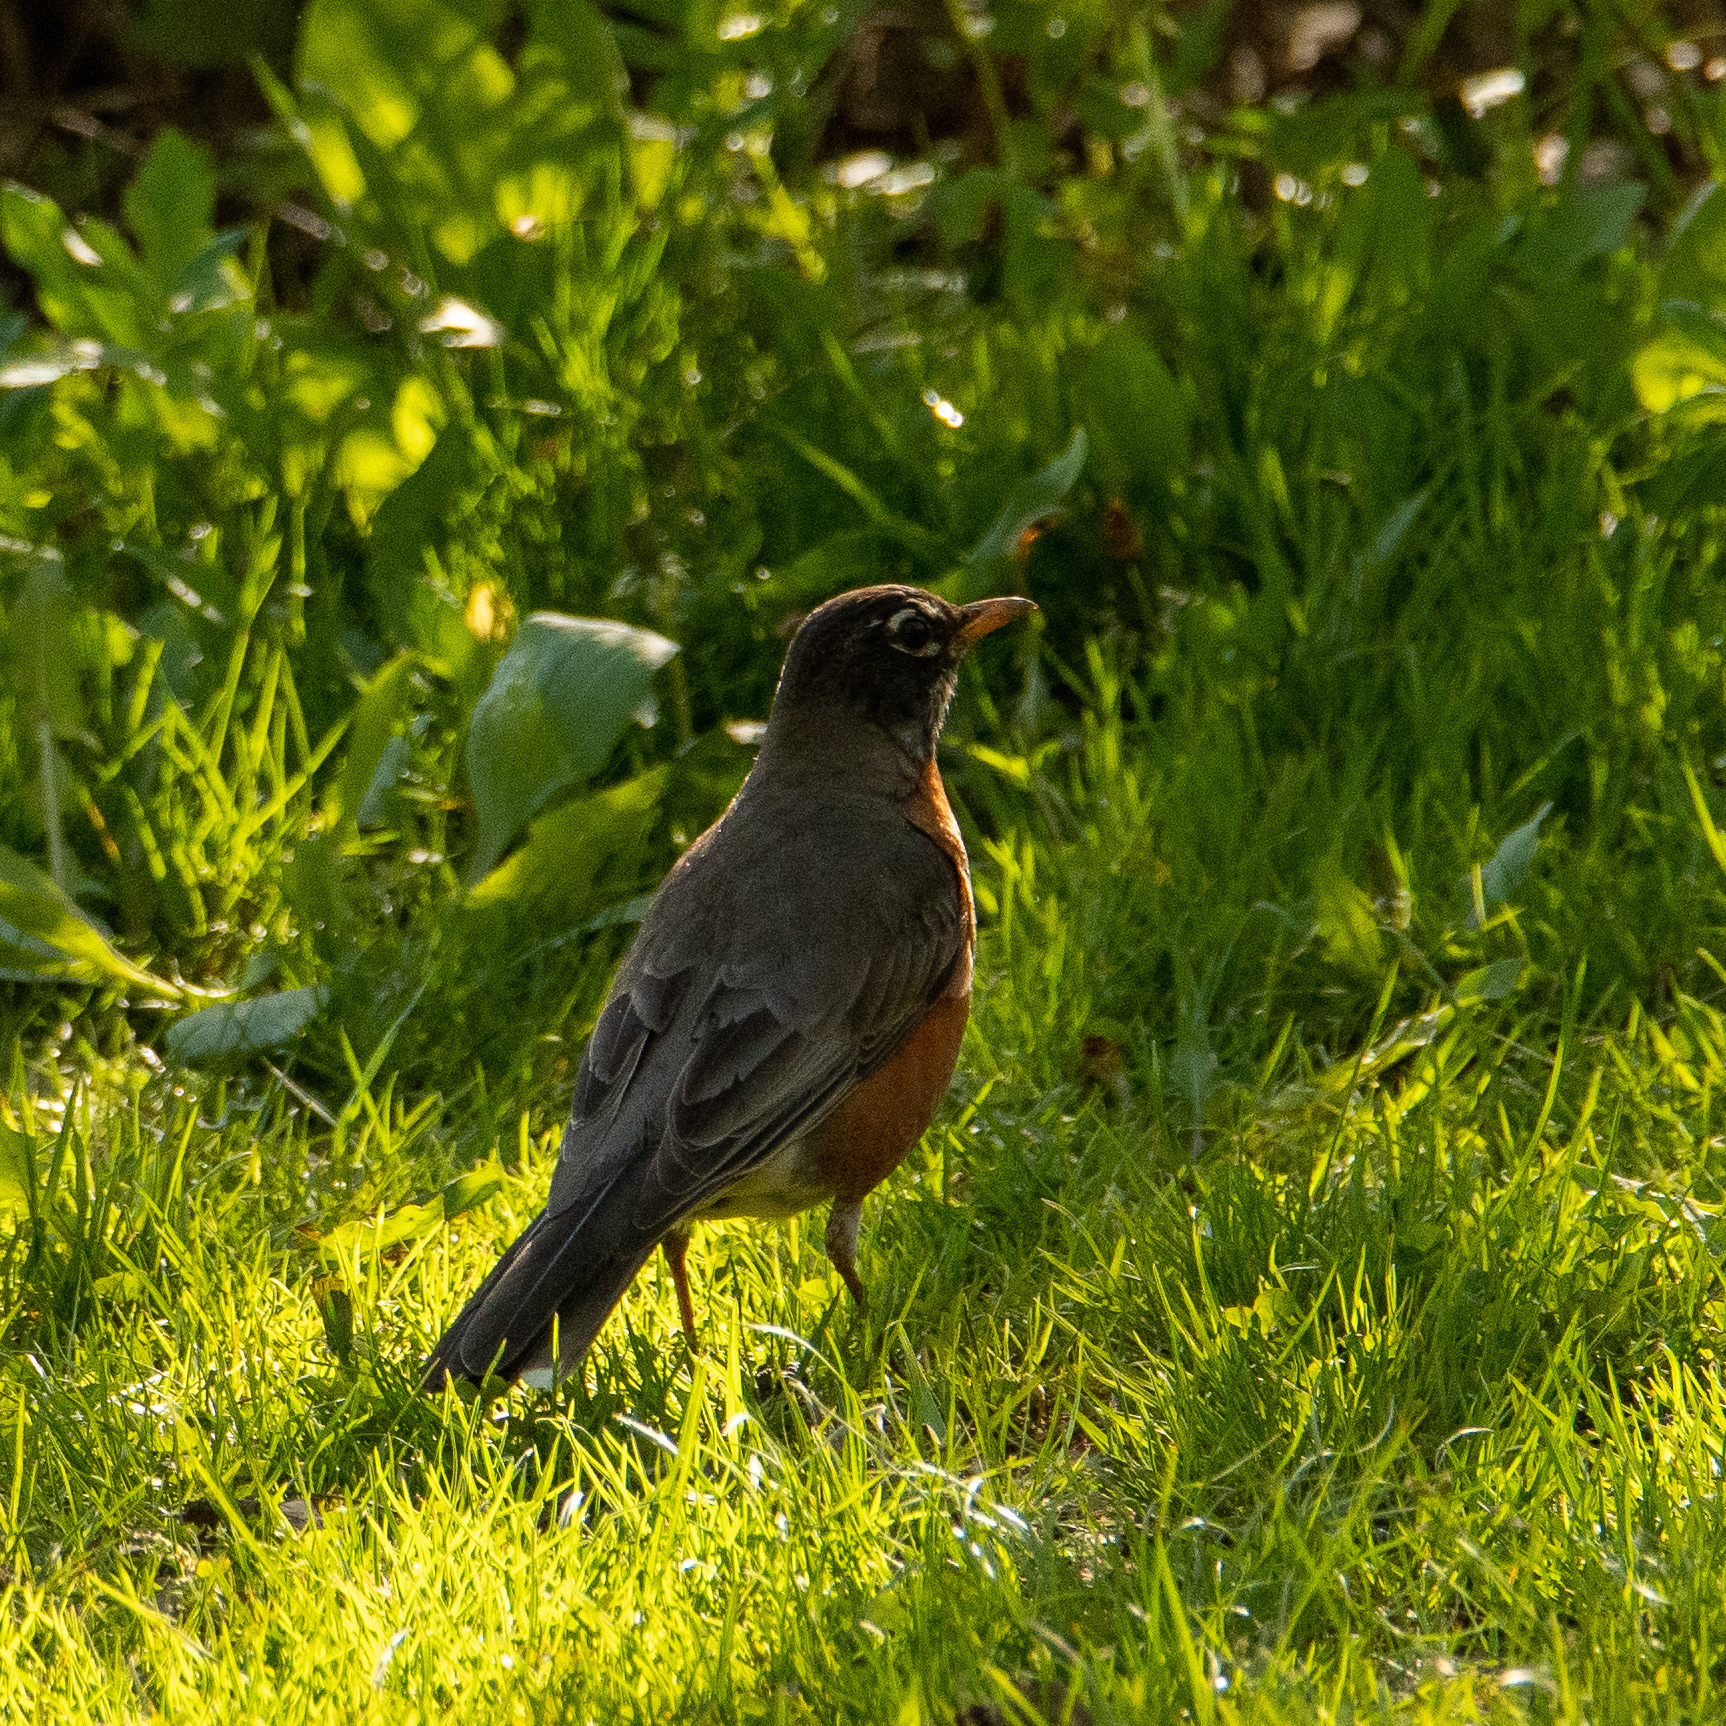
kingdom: Animalia
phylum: Chordata
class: Aves
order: Passeriformes
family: Turdidae
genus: Turdus
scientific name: Turdus migratorius
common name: American robin
